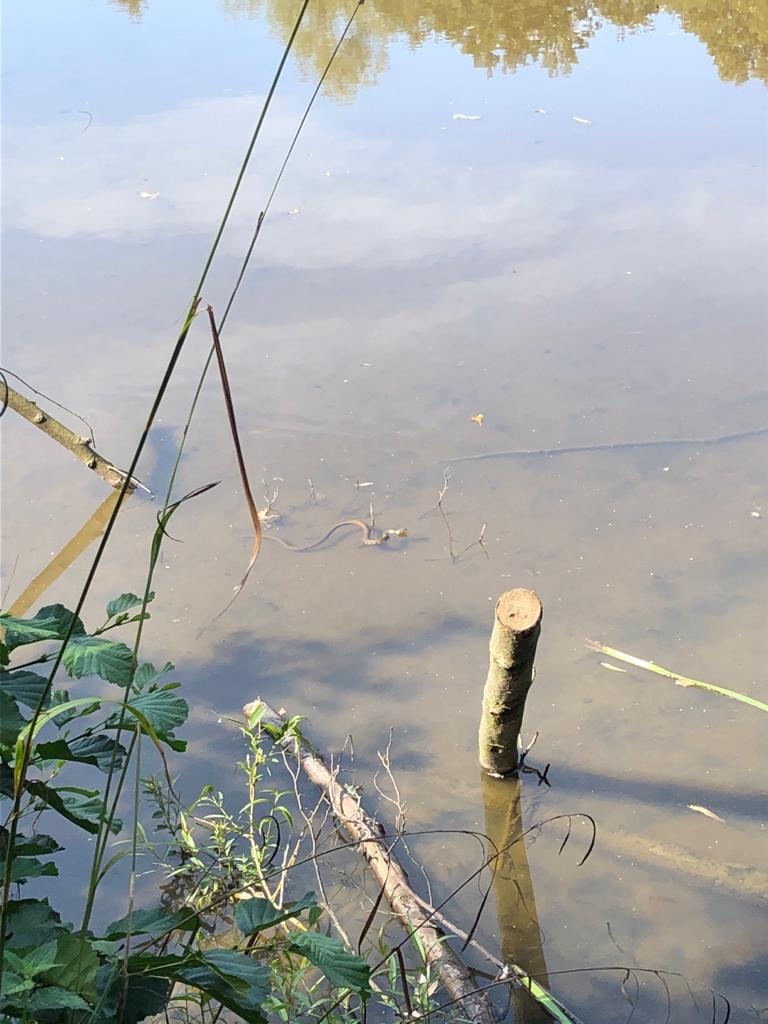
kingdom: Animalia
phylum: Chordata
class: Squamata
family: Colubridae
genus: Natrix
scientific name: Natrix helvetica
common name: Banded grass snake
